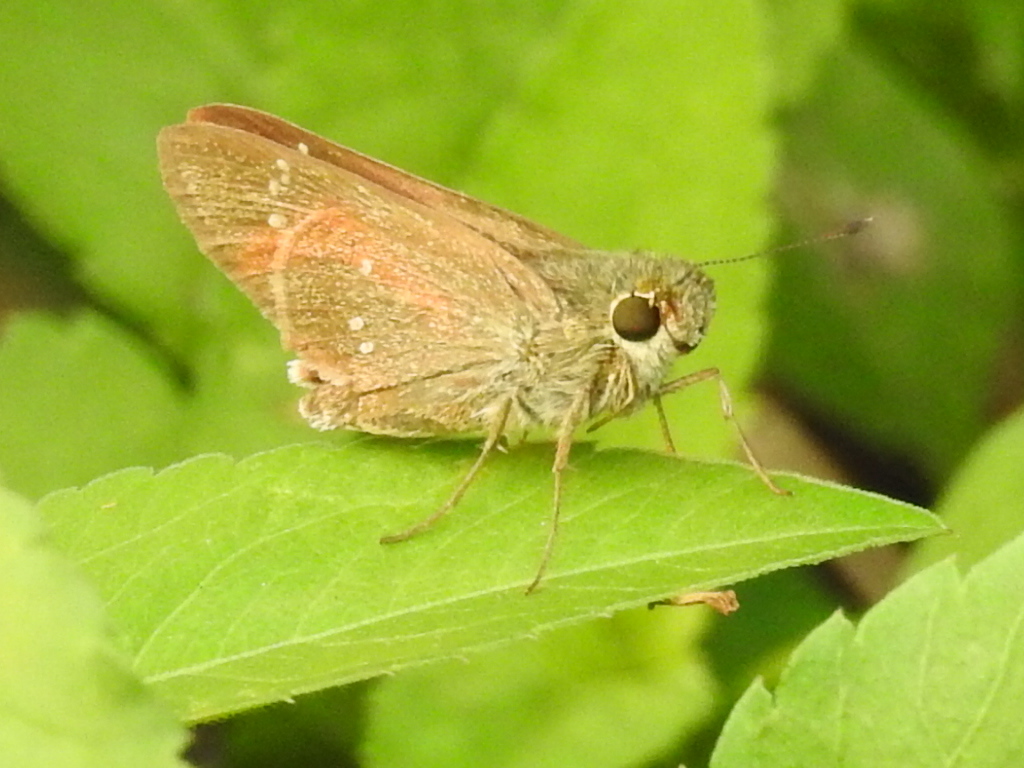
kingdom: Animalia
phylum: Arthropoda
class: Insecta
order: Lepidoptera
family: Hesperiidae
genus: Borbo
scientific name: Borbo cinnara
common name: Formosan swift
